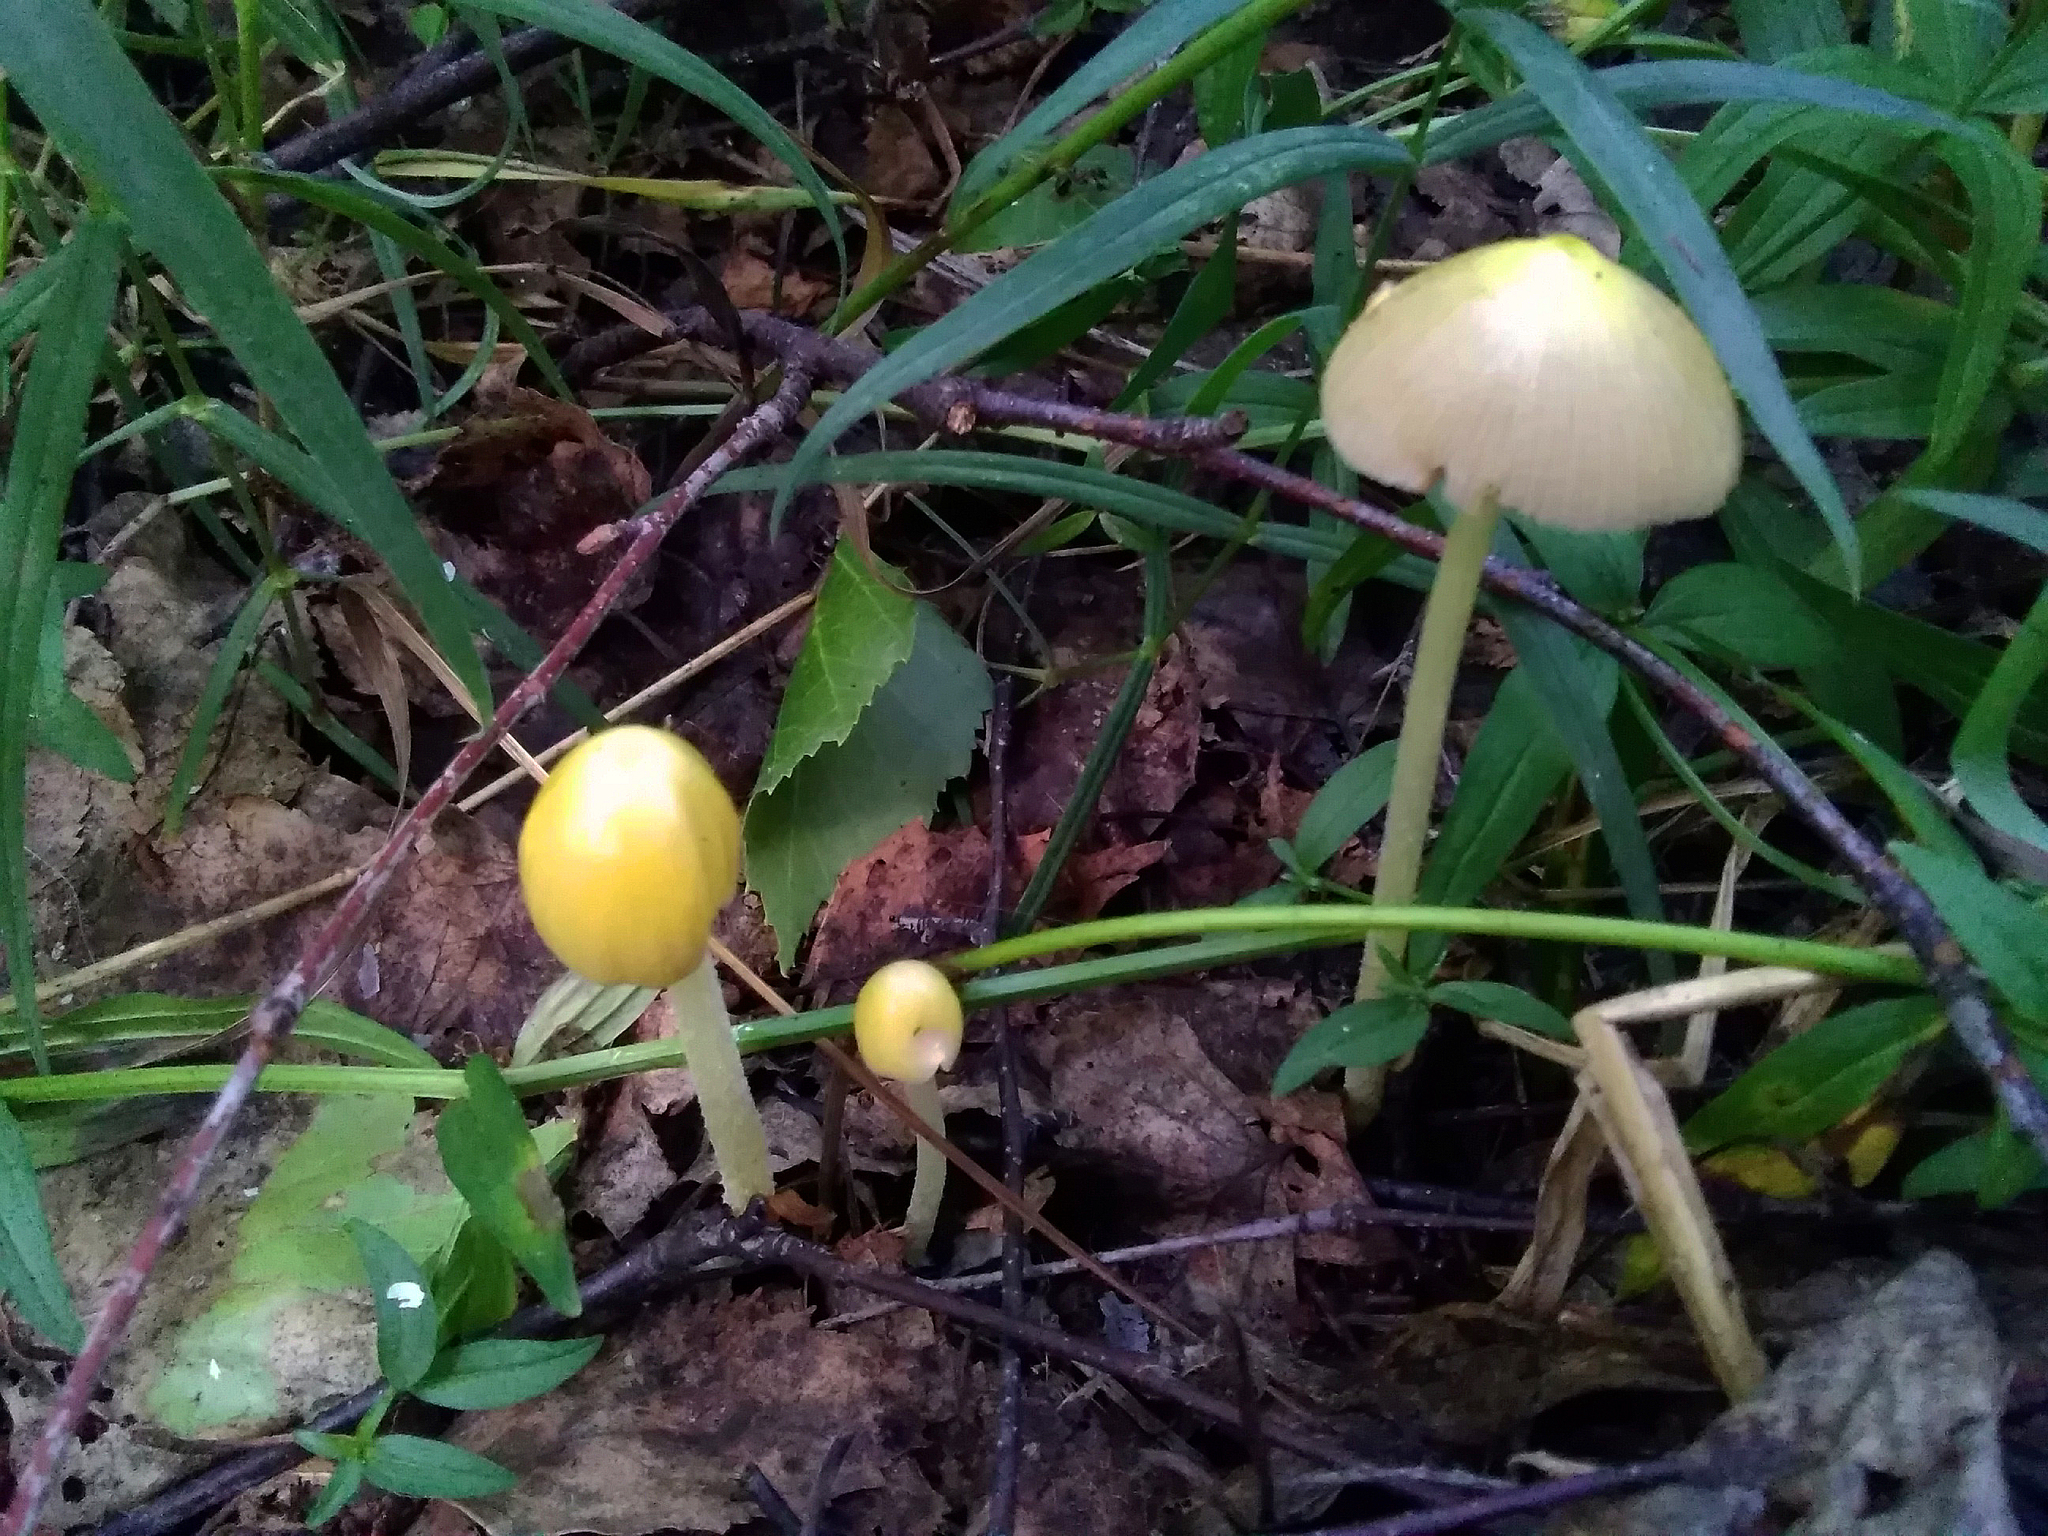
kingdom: Fungi
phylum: Basidiomycota
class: Agaricomycetes
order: Agaricales
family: Bolbitiaceae
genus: Bolbitius
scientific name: Bolbitius titubans
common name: Yellow fieldcap
